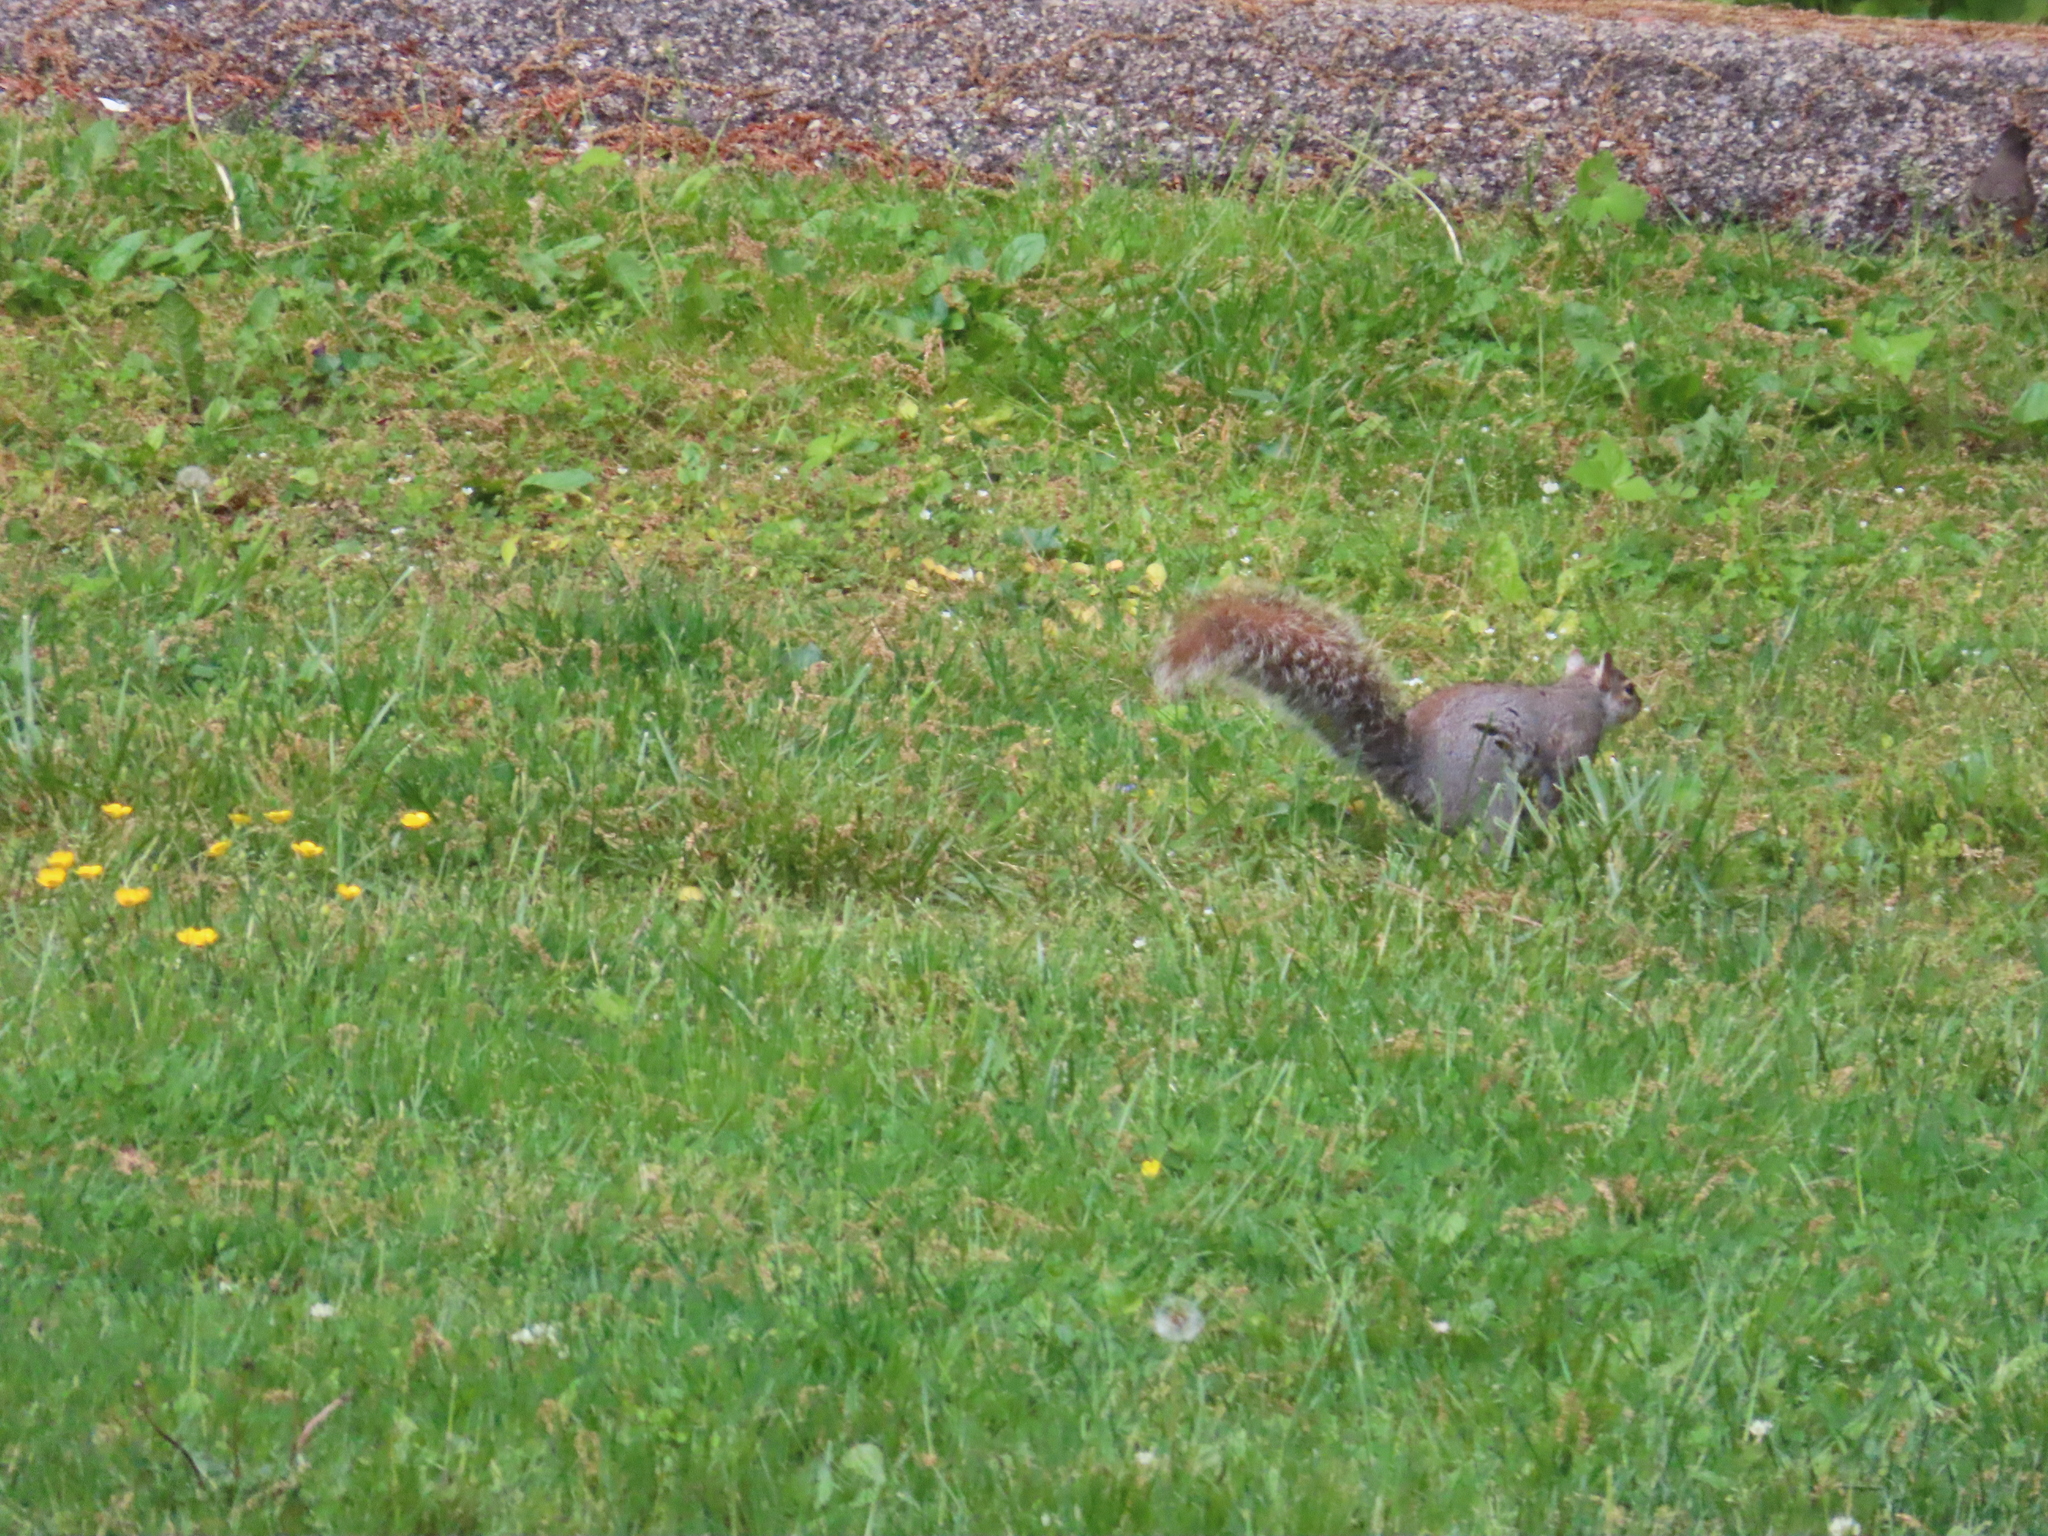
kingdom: Animalia
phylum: Chordata
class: Mammalia
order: Rodentia
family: Sciuridae
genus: Sciurus
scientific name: Sciurus carolinensis
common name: Eastern gray squirrel
